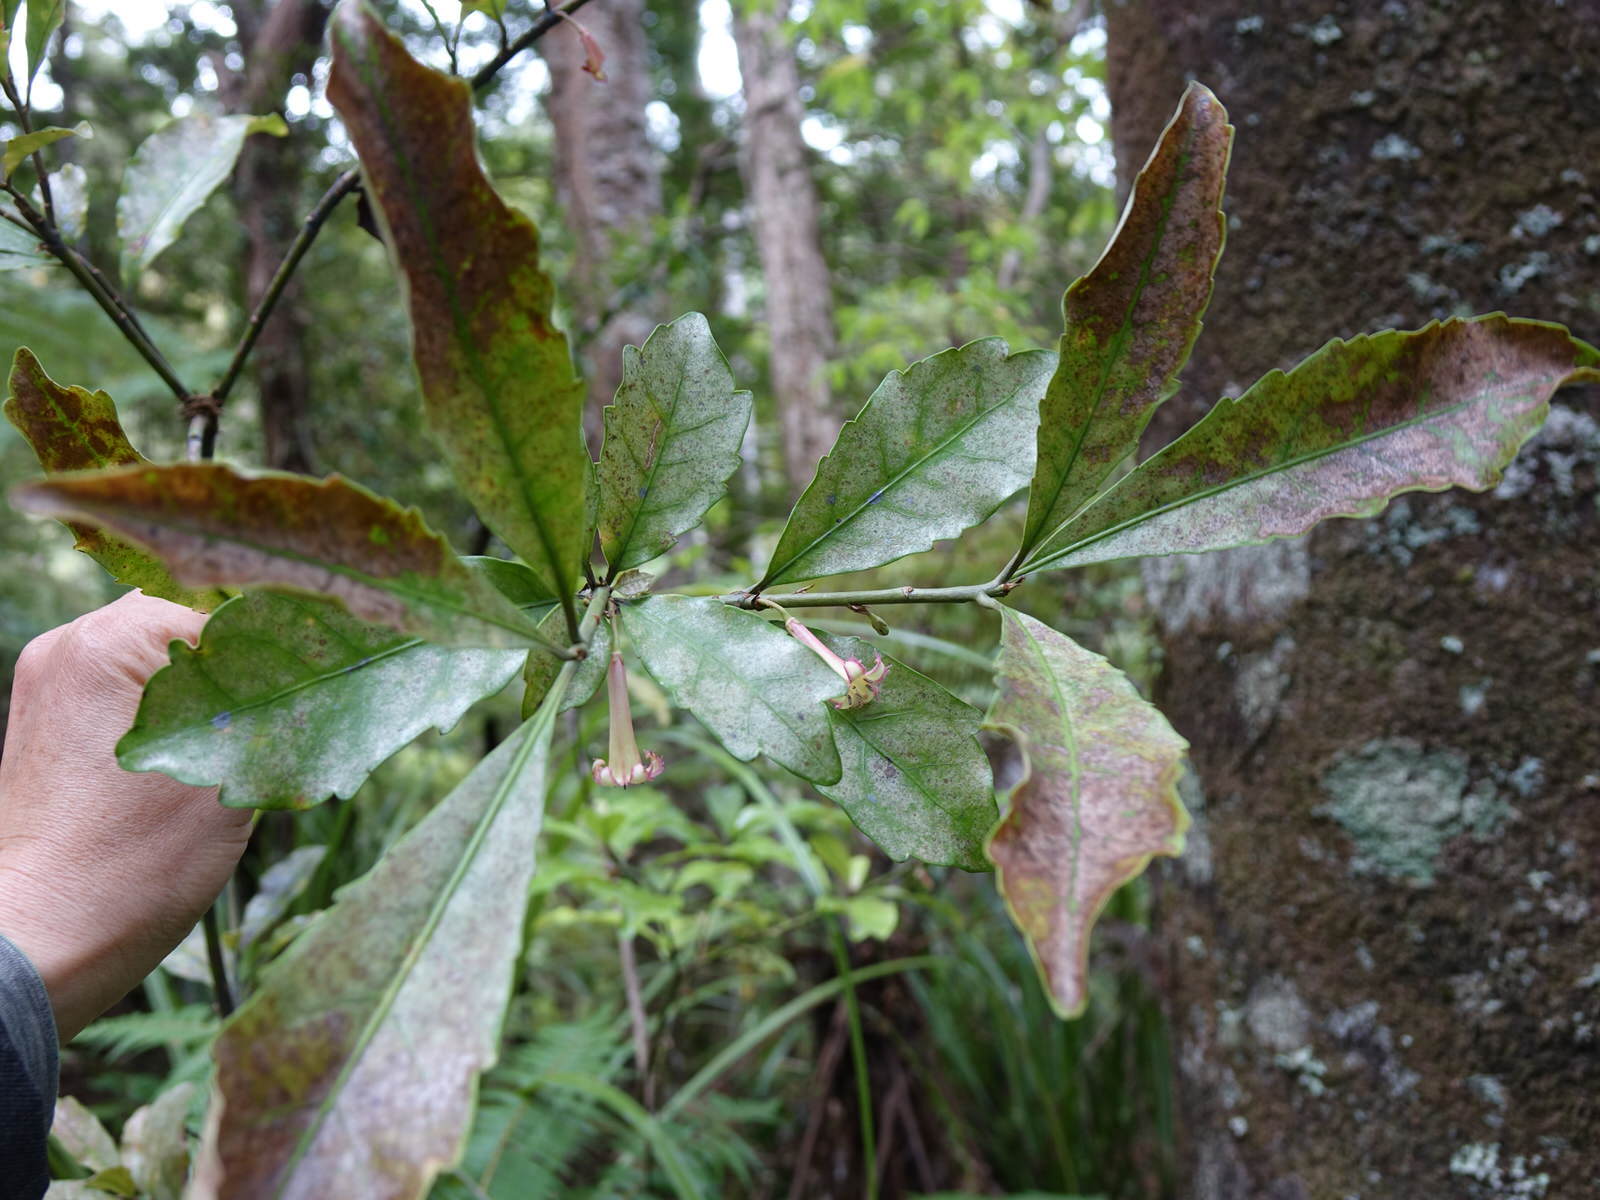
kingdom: Plantae
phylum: Tracheophyta
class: Magnoliopsida
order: Asterales
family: Alseuosmiaceae
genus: Alseuosmia
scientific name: Alseuosmia macrophylla
